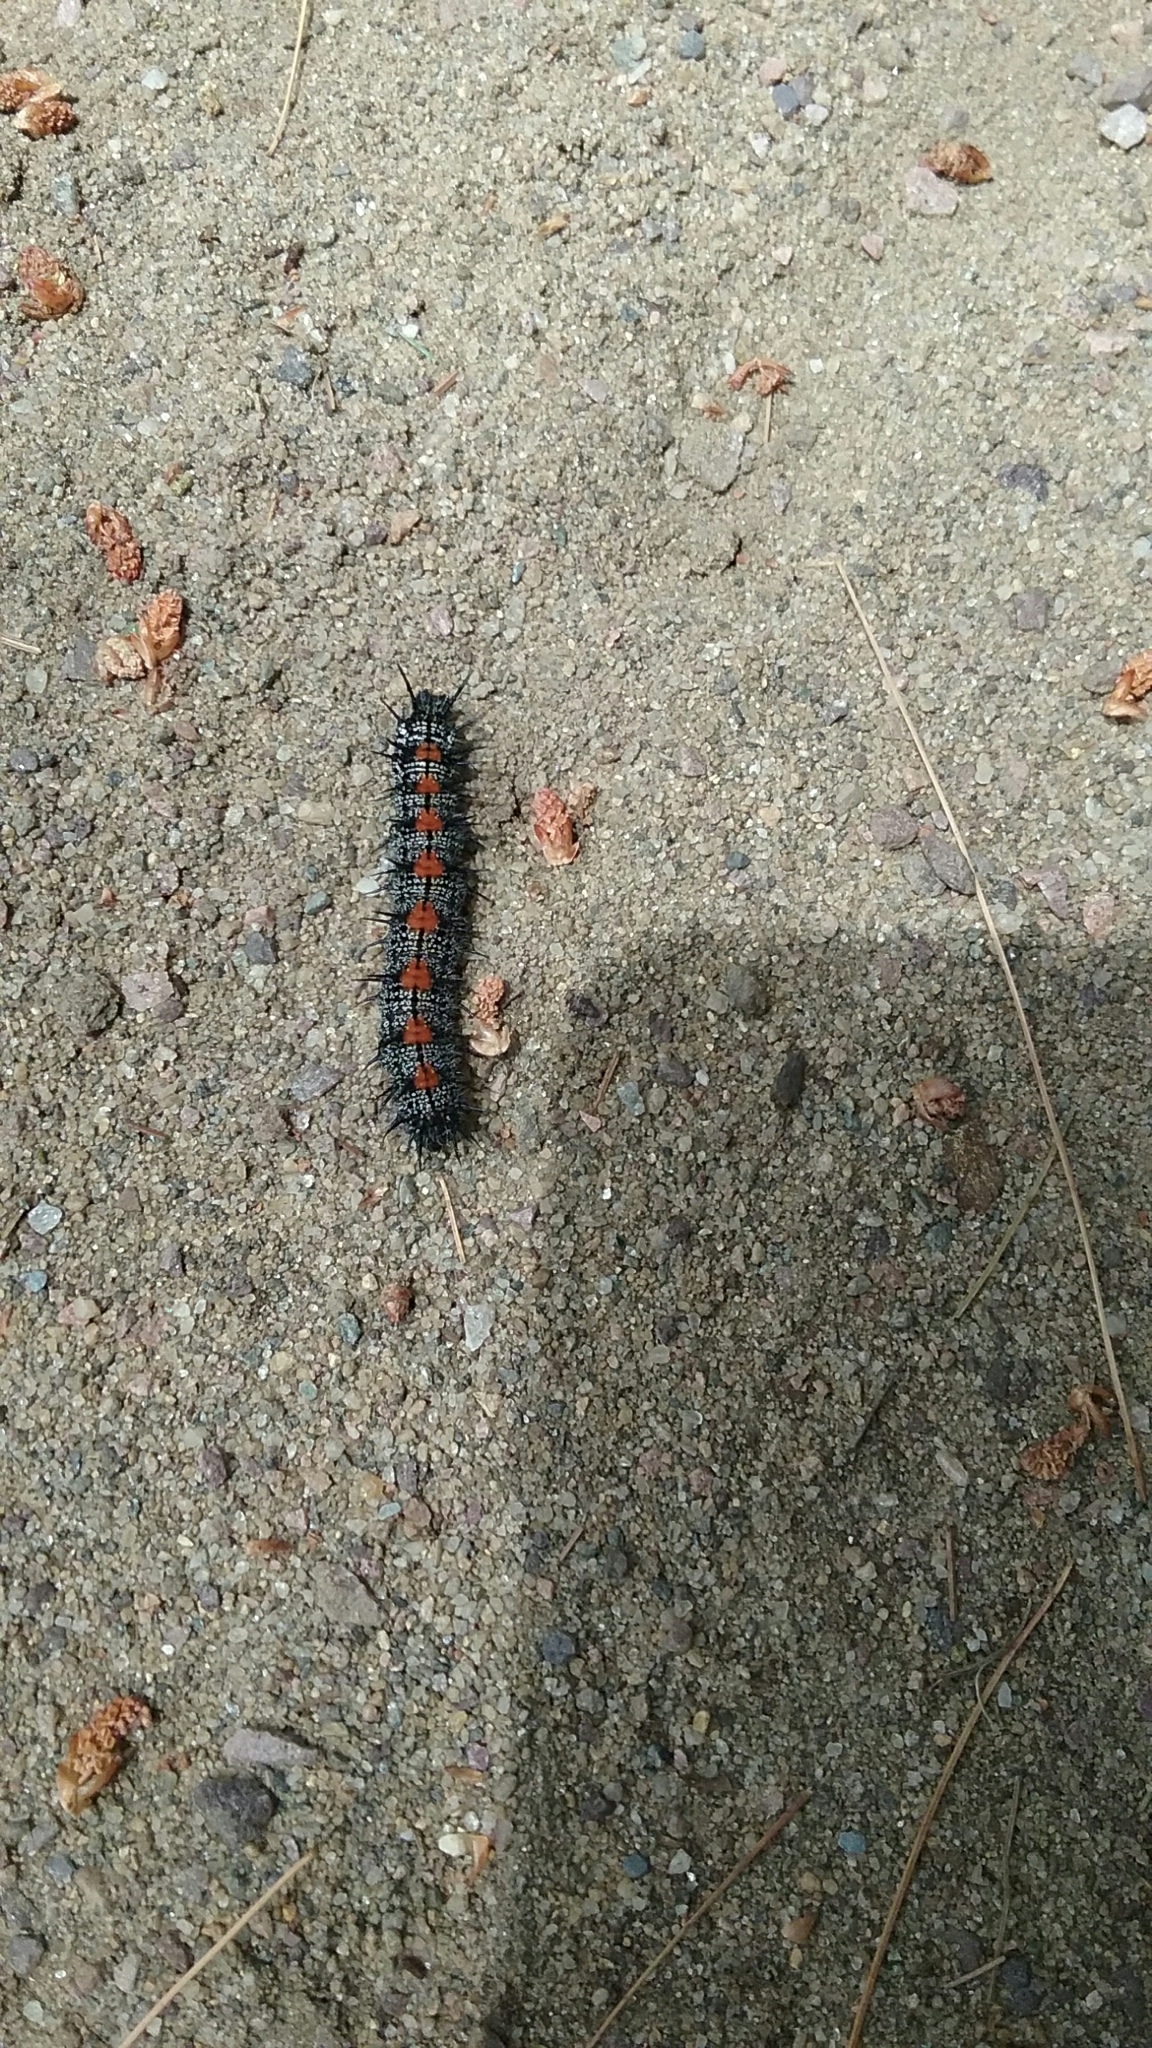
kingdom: Animalia
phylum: Arthropoda
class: Insecta
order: Lepidoptera
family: Nymphalidae
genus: Nymphalis
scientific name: Nymphalis antiopa
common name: Camberwell beauty
